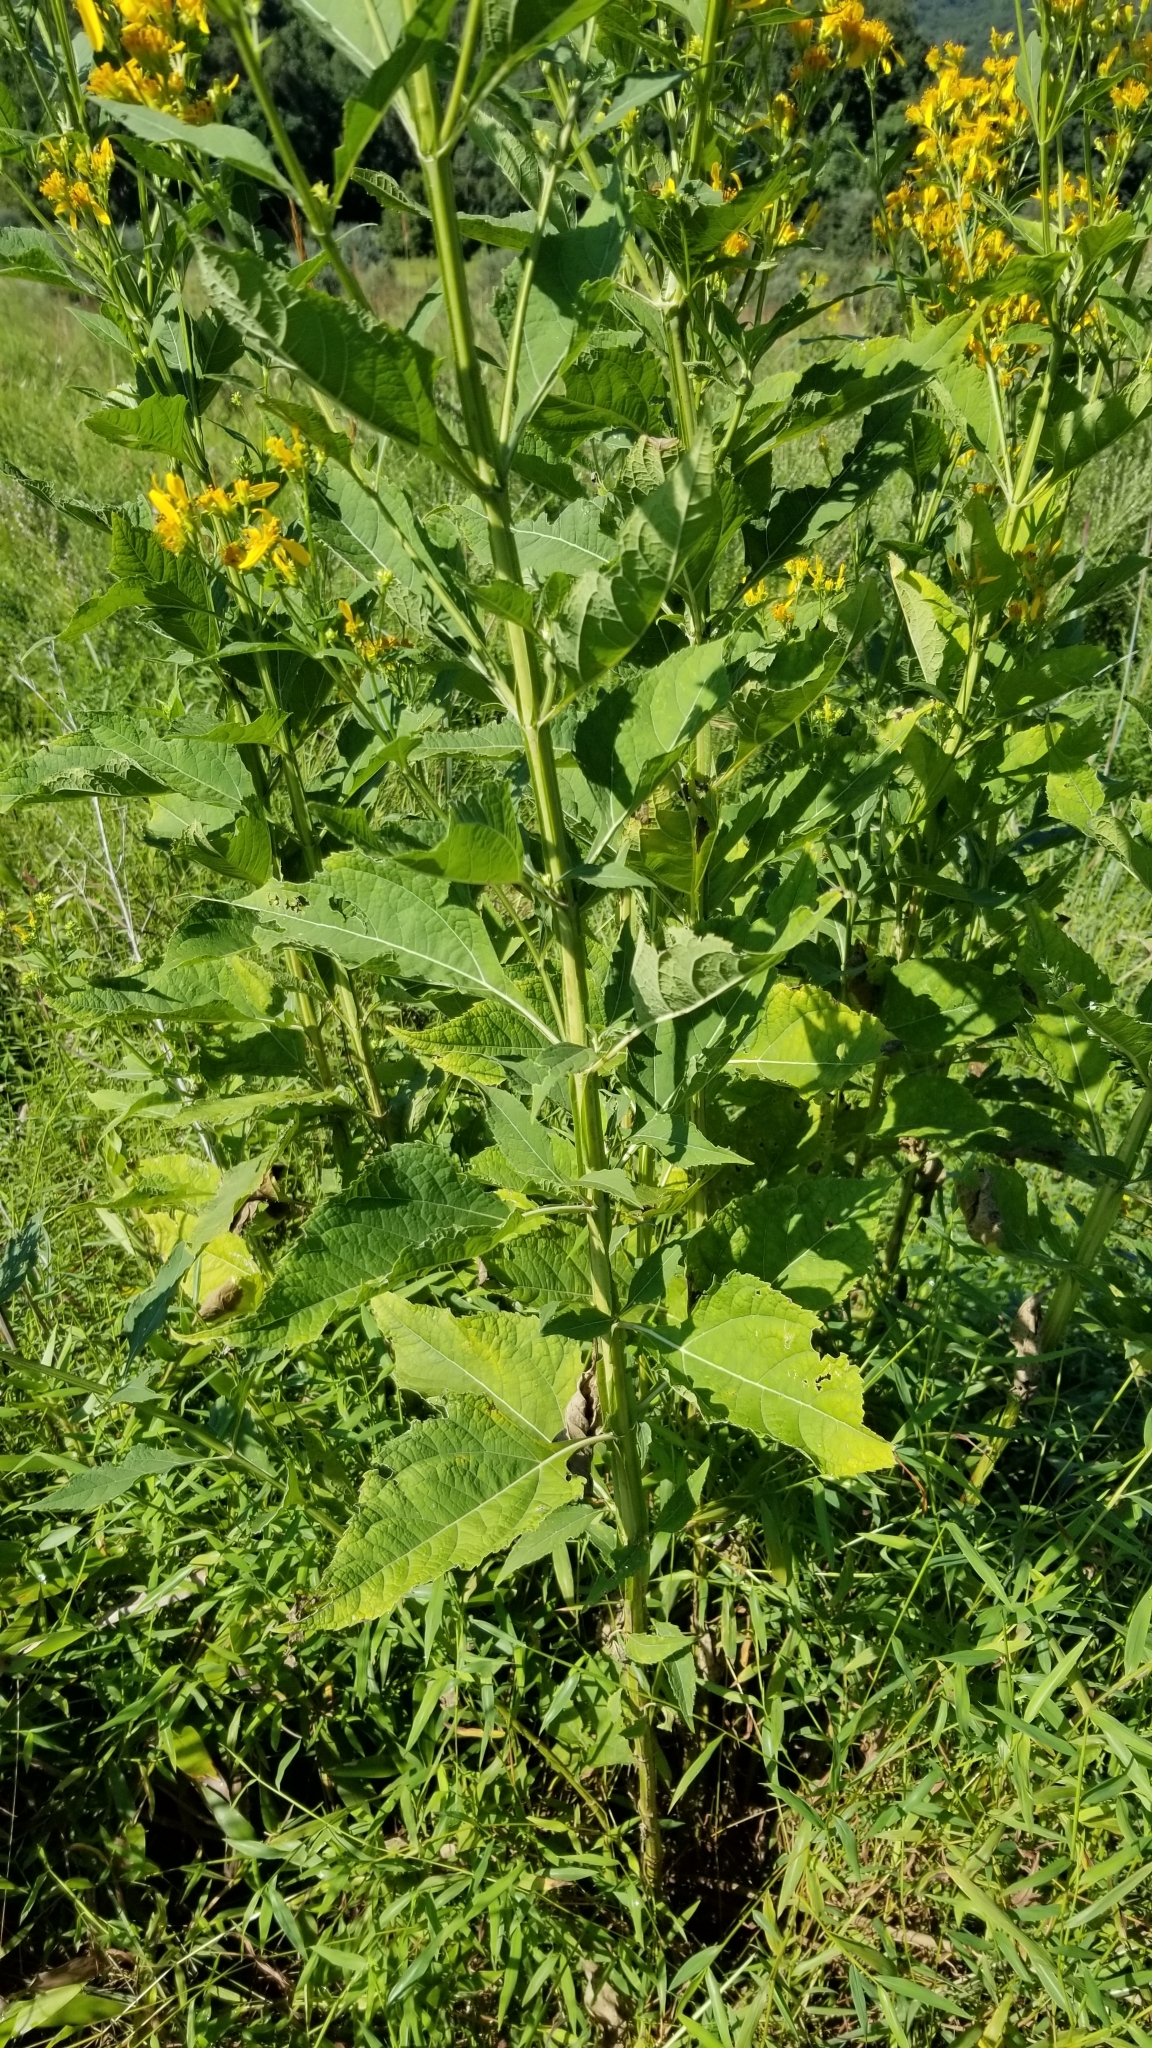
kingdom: Plantae
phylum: Tracheophyta
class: Magnoliopsida
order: Asterales
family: Asteraceae
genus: Verbesina
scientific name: Verbesina occidentalis
